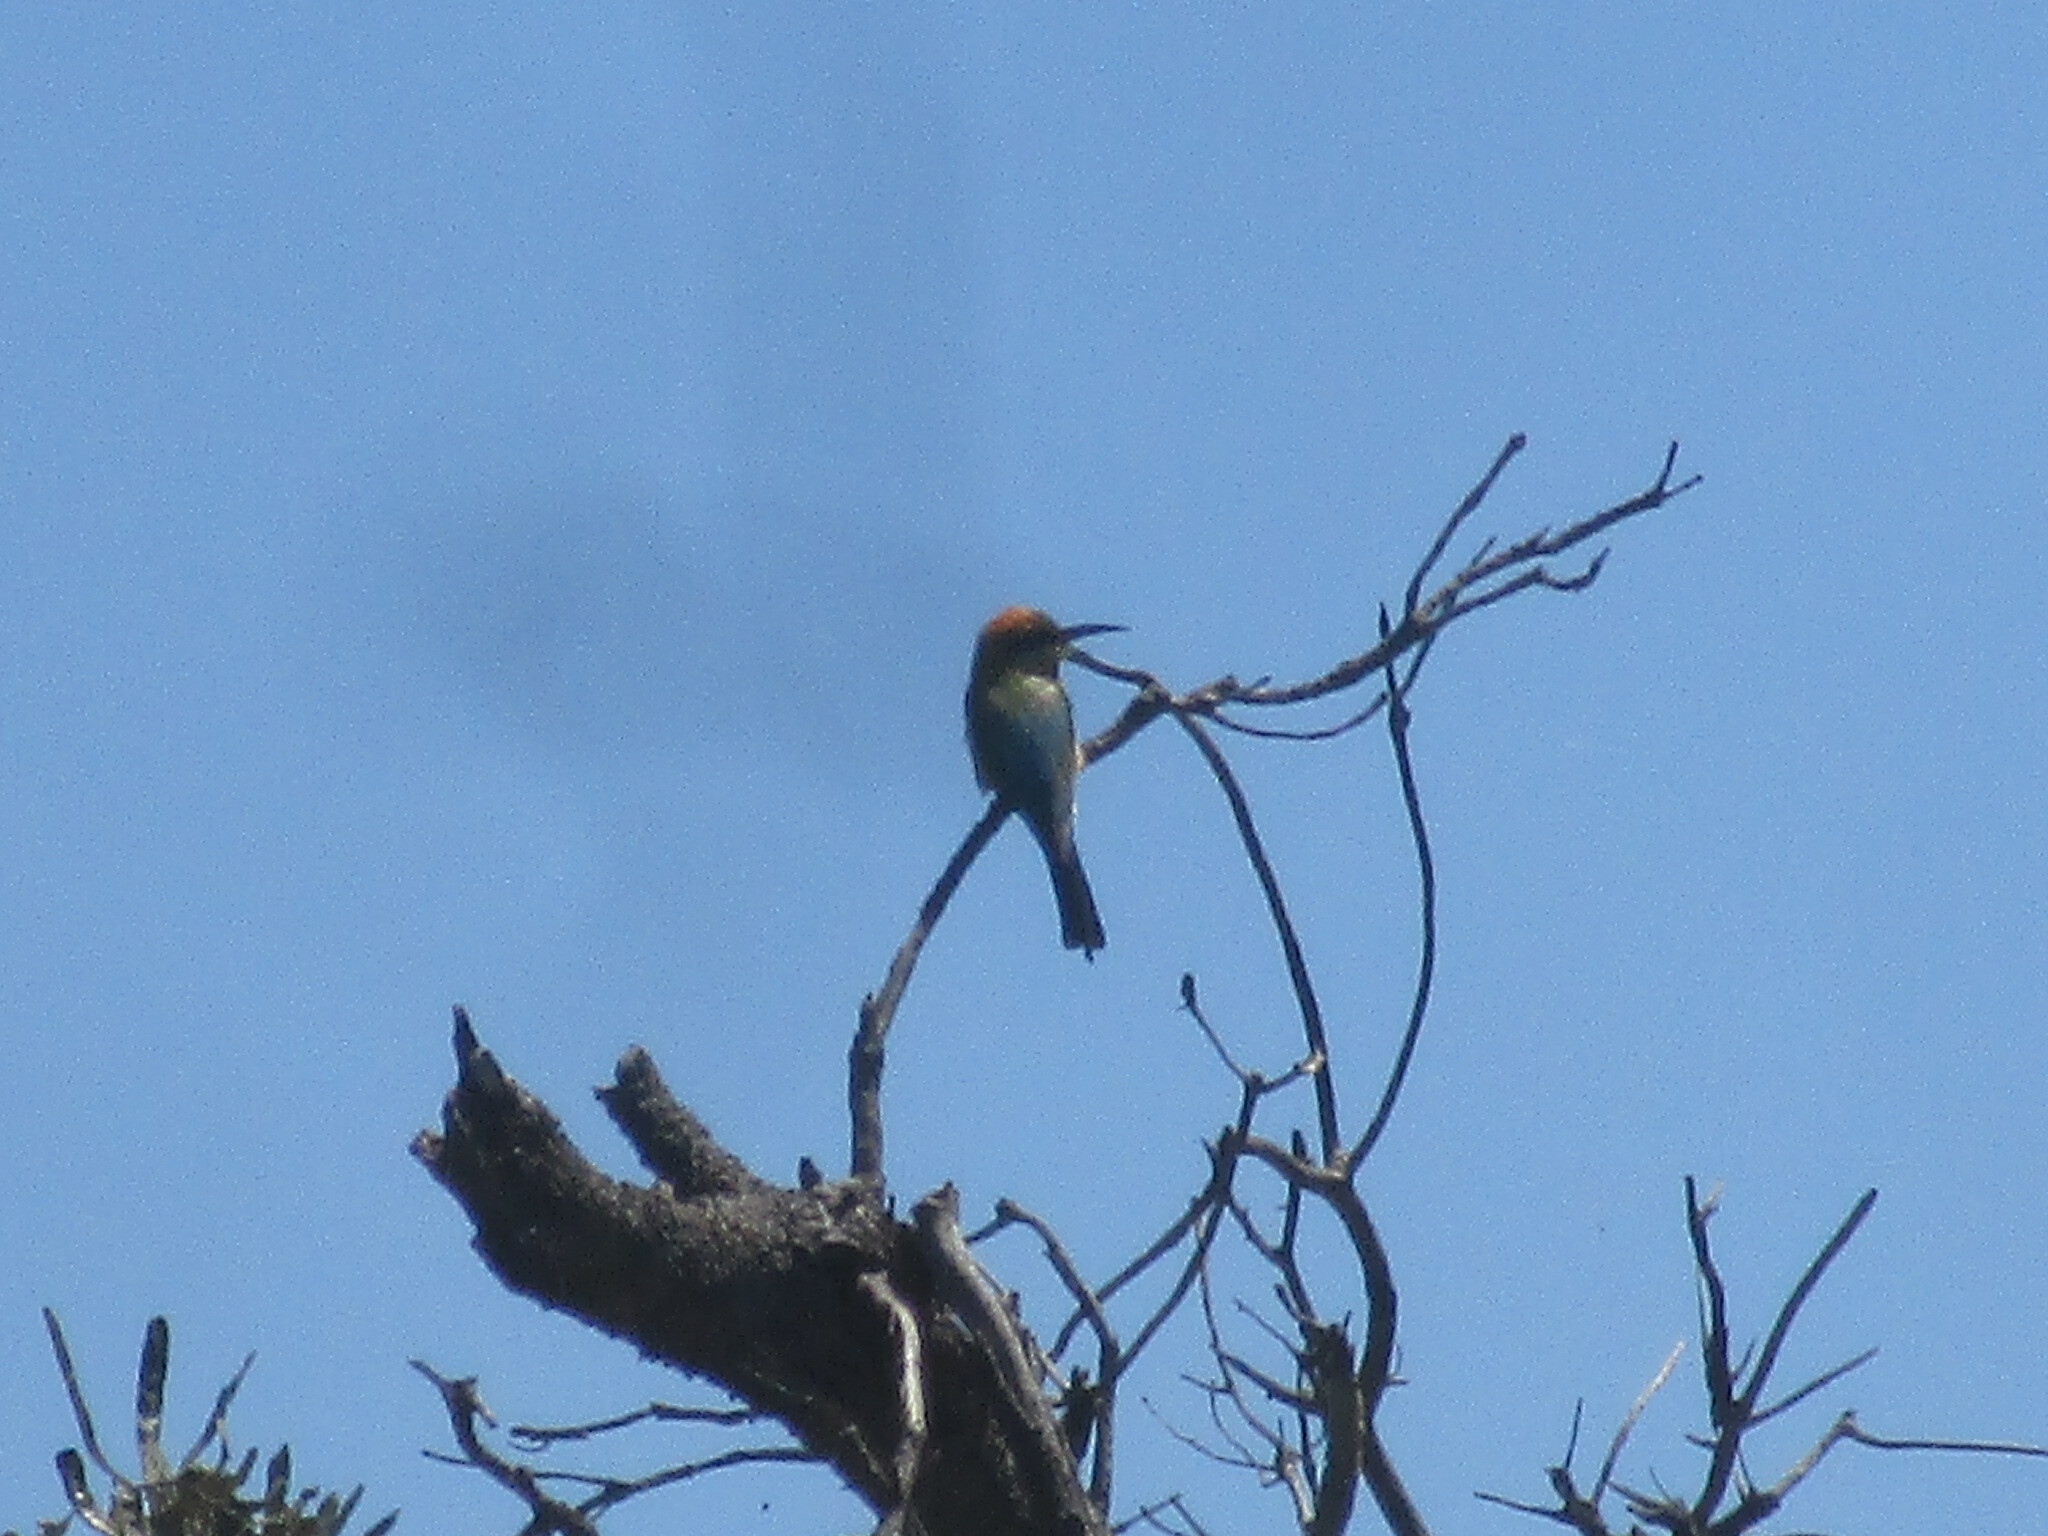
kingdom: Animalia
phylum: Chordata
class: Aves
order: Coraciiformes
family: Meropidae
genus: Merops
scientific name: Merops ornatus
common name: Rainbow bee-eater
